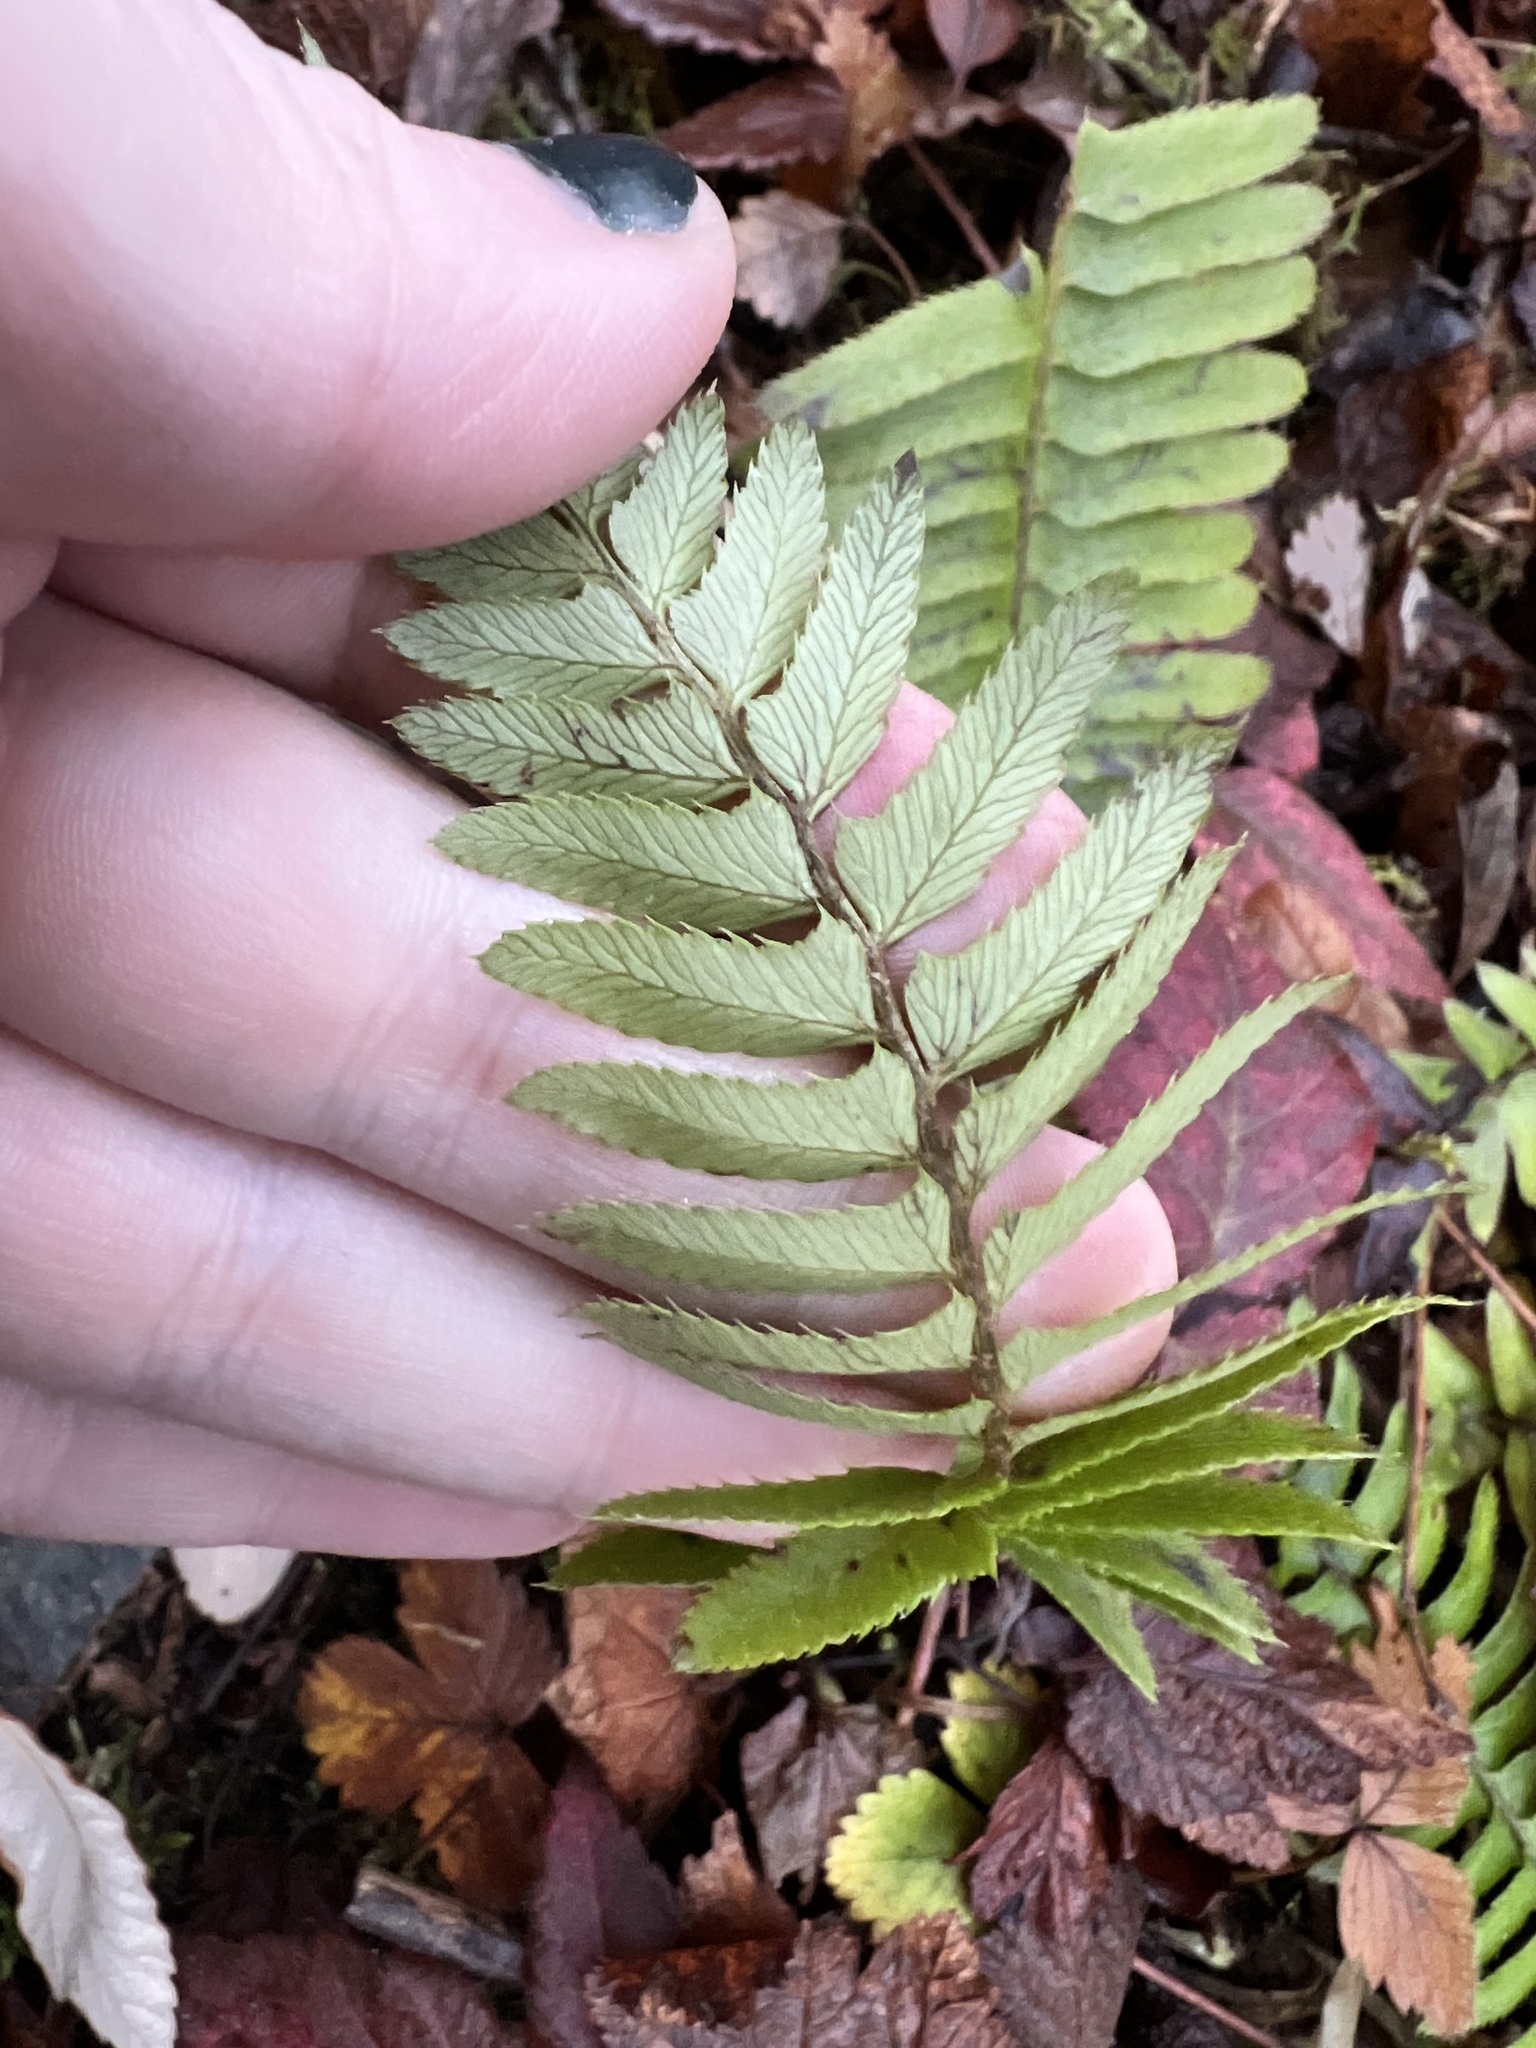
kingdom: Plantae
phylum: Tracheophyta
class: Polypodiopsida
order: Polypodiales
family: Dryopteridaceae
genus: Polystichum
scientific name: Polystichum munitum
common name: Western sword-fern
